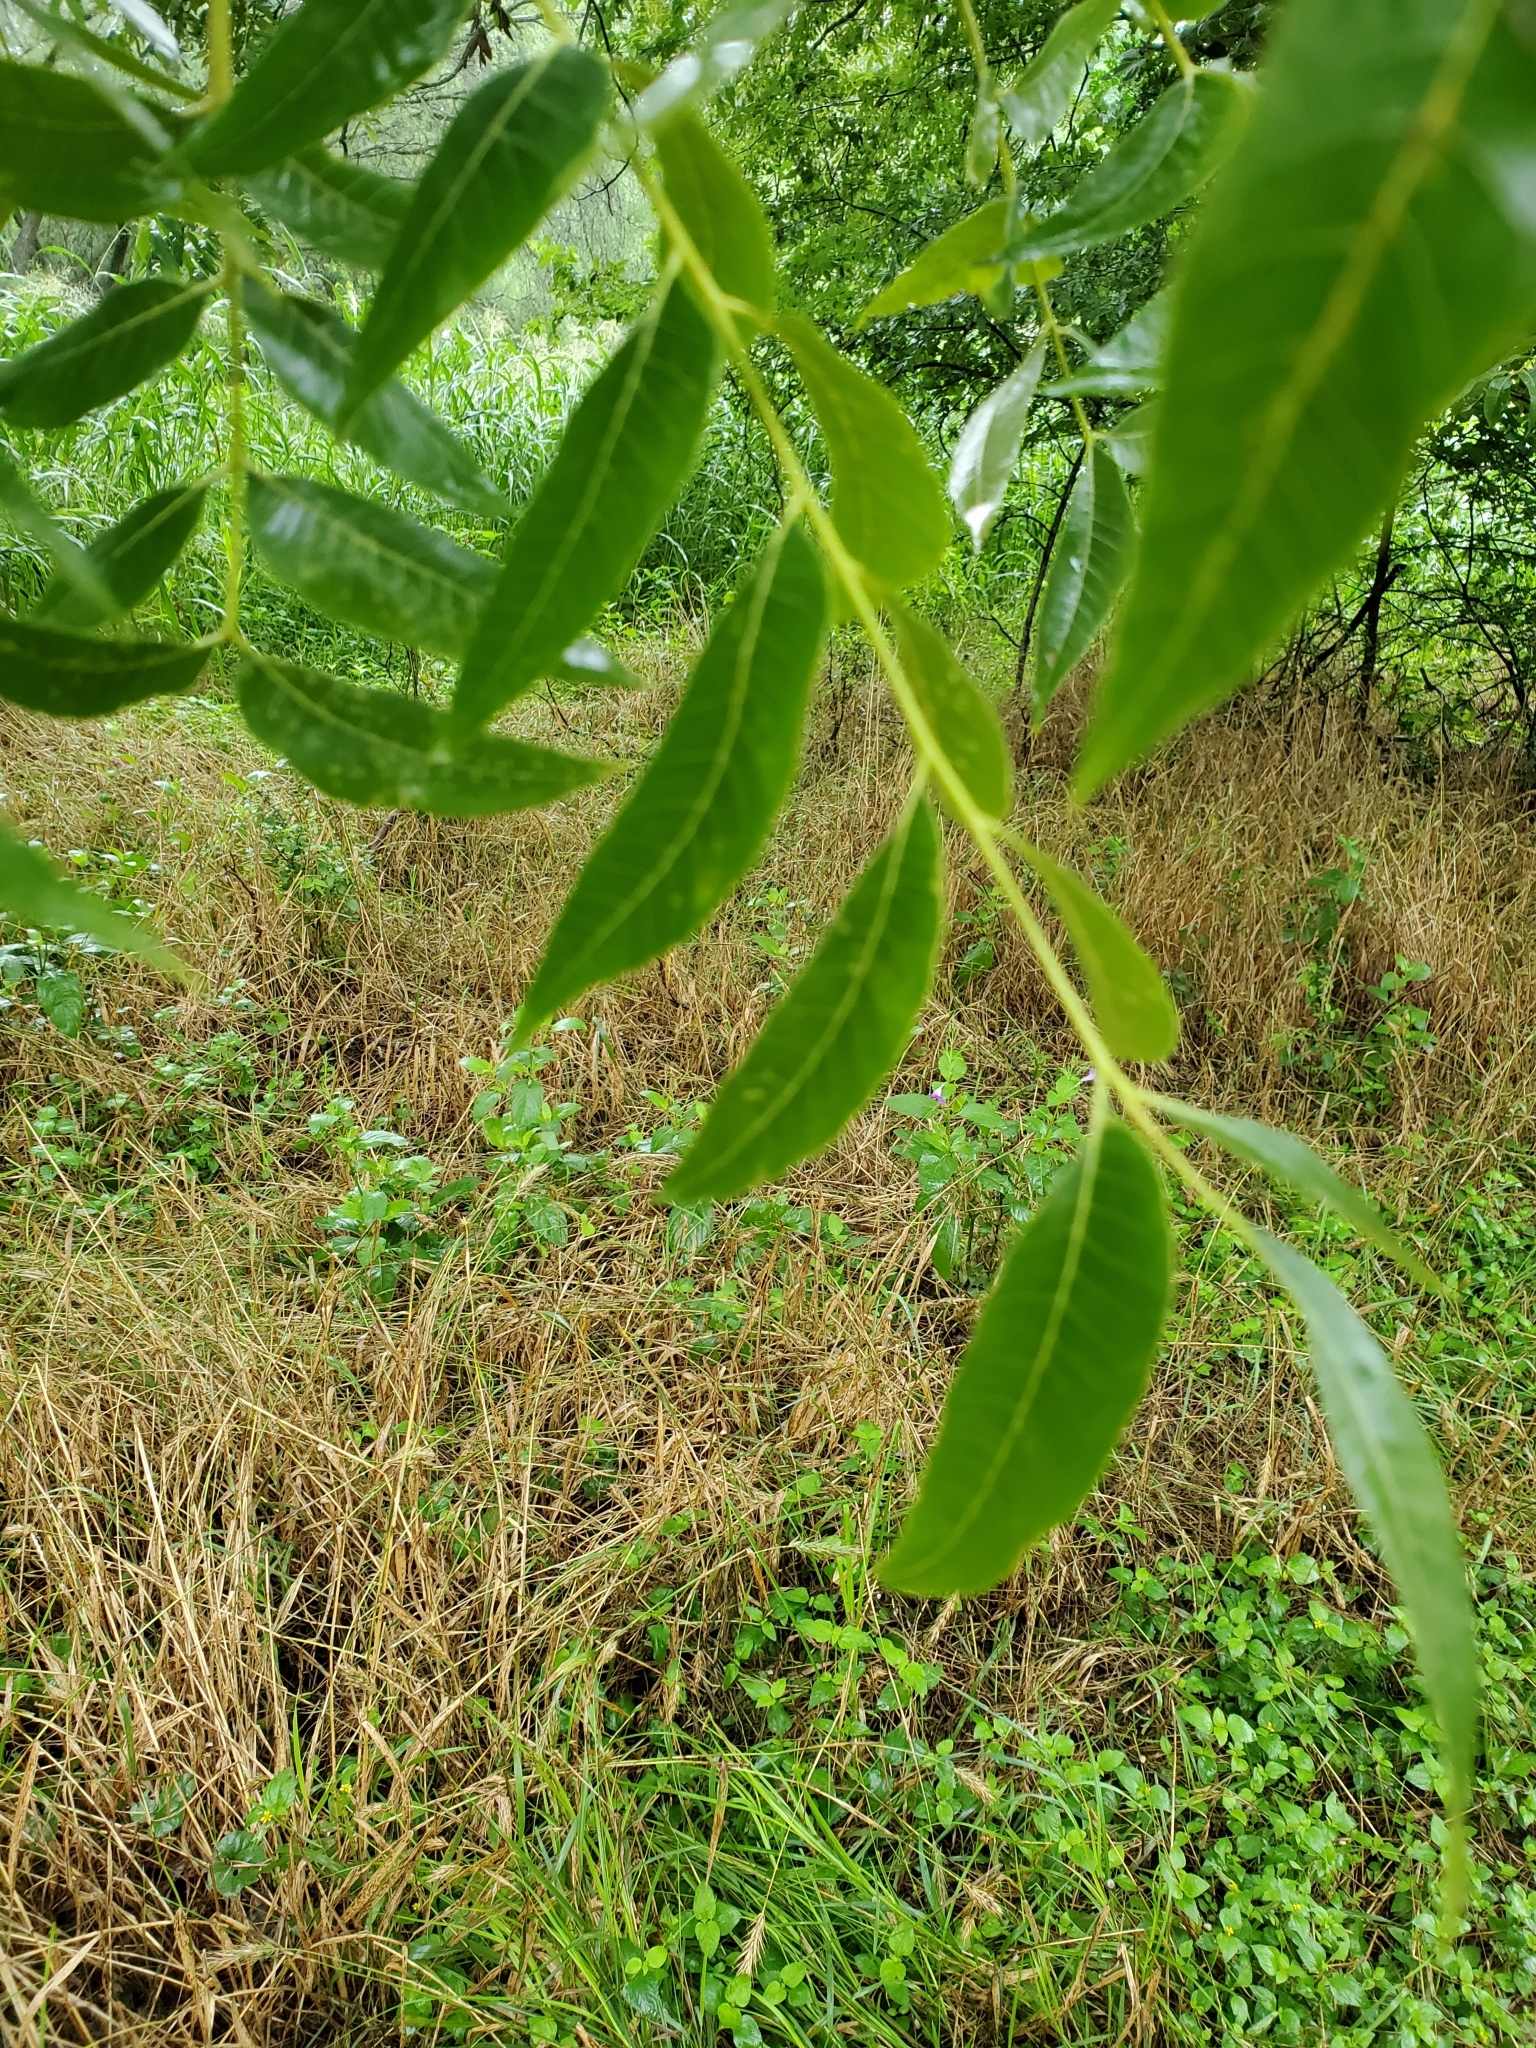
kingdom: Plantae
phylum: Tracheophyta
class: Magnoliopsida
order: Fagales
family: Juglandaceae
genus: Carya
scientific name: Carya illinoinensis
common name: Pecan
